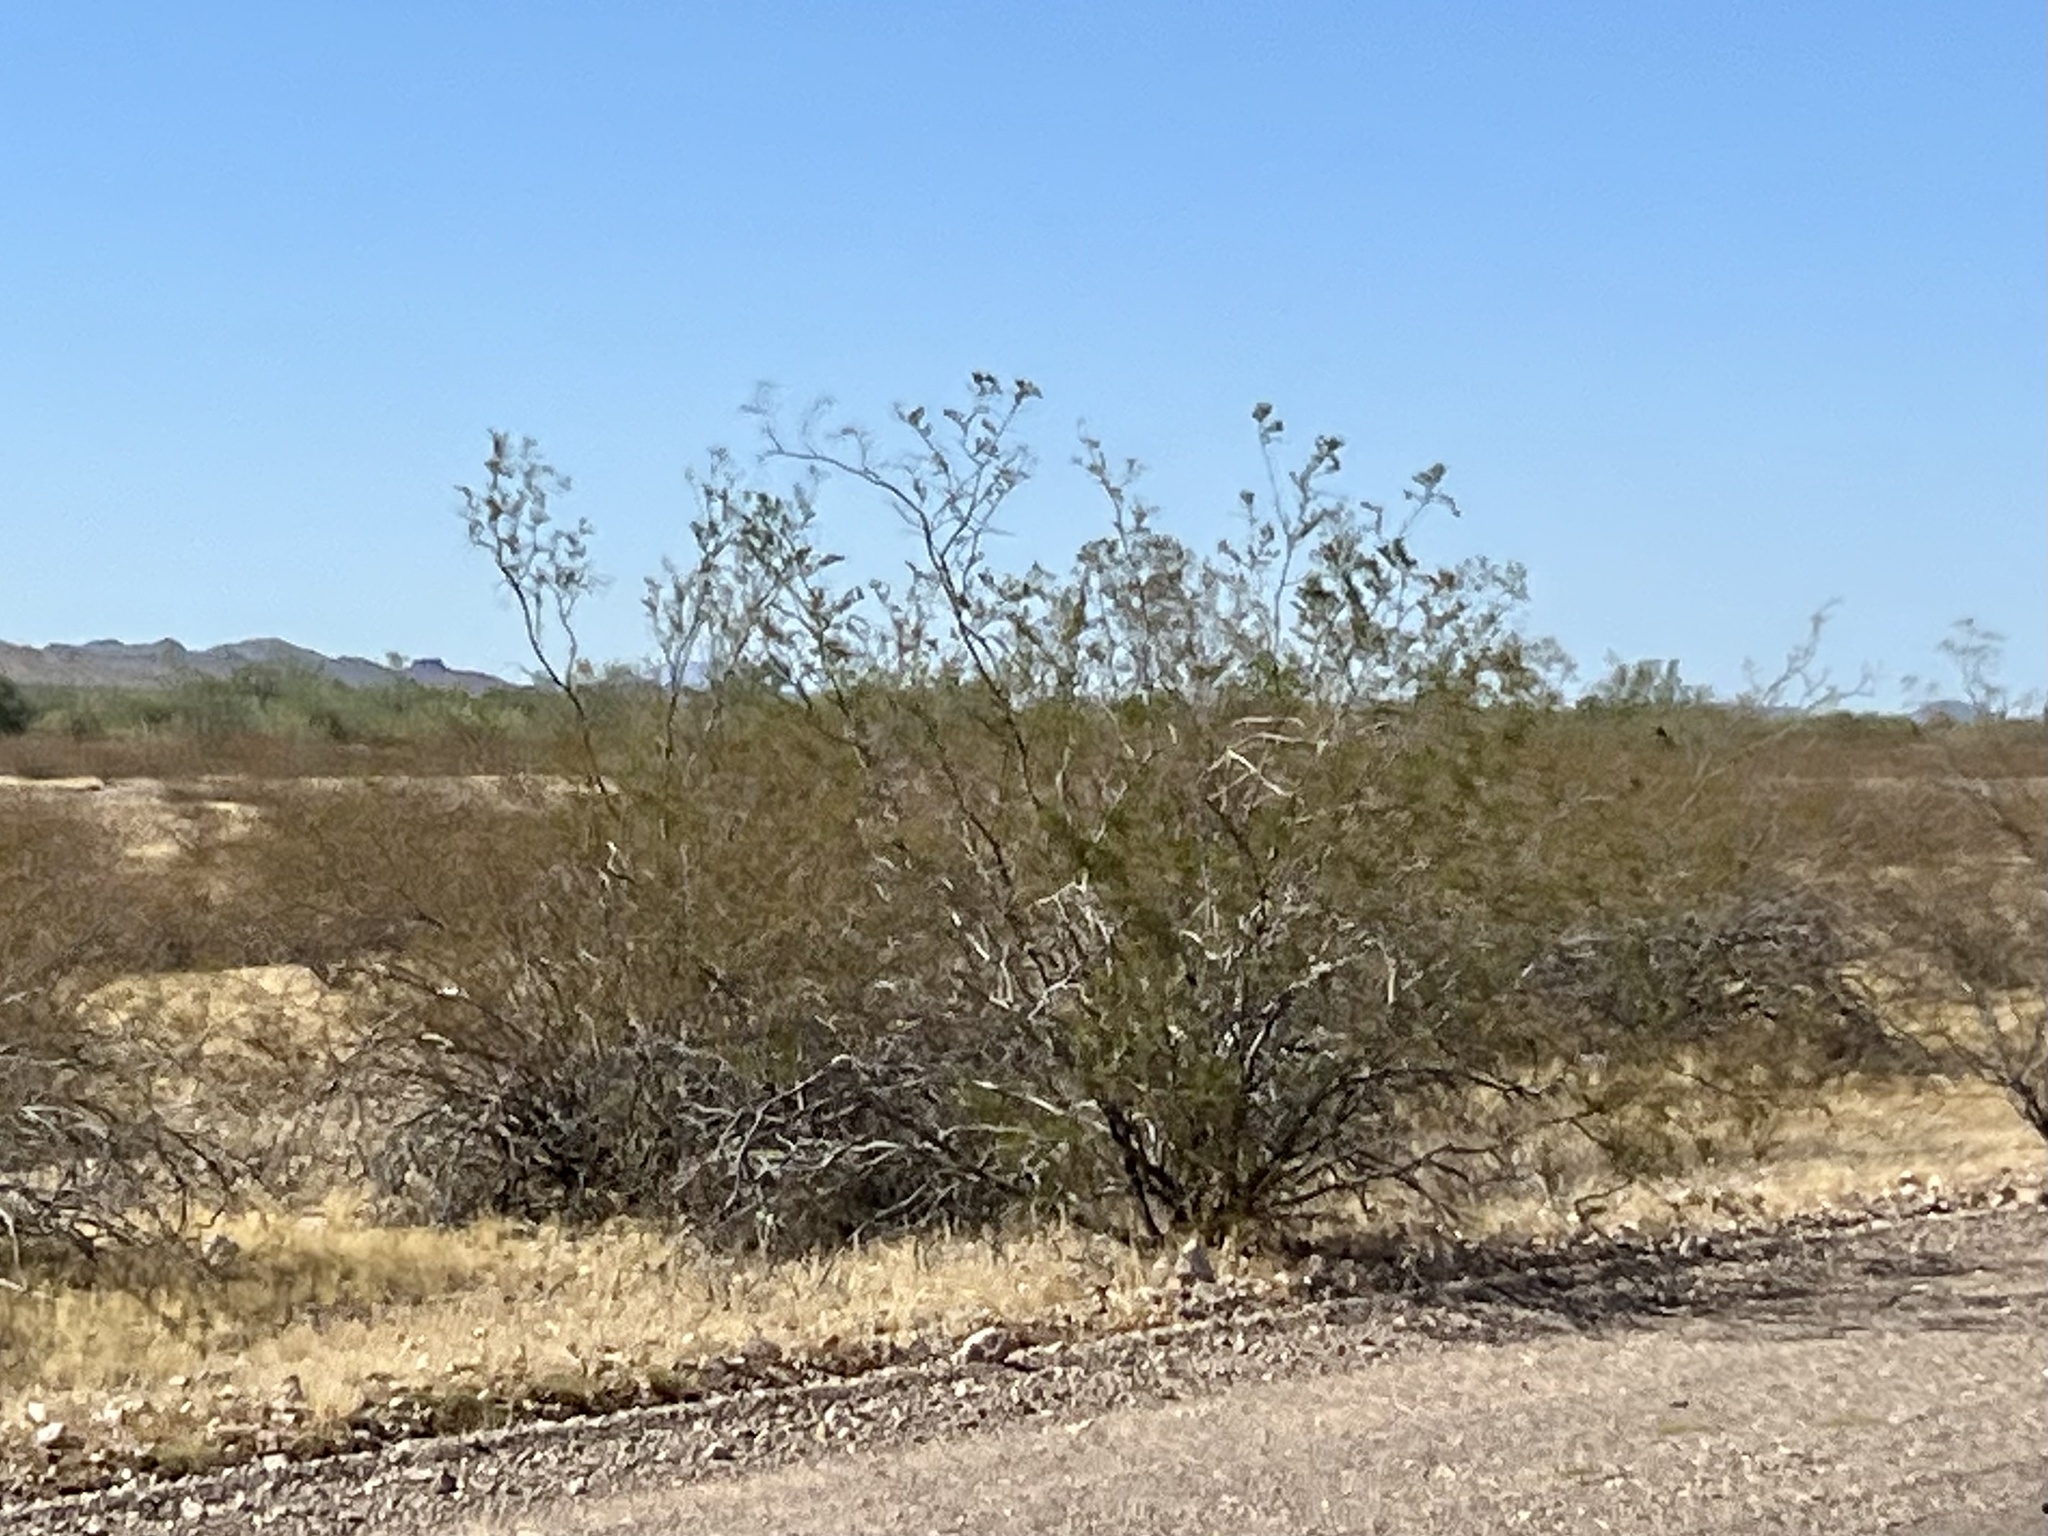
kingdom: Plantae
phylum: Tracheophyta
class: Magnoliopsida
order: Zygophyllales
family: Zygophyllaceae
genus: Larrea
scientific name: Larrea tridentata
